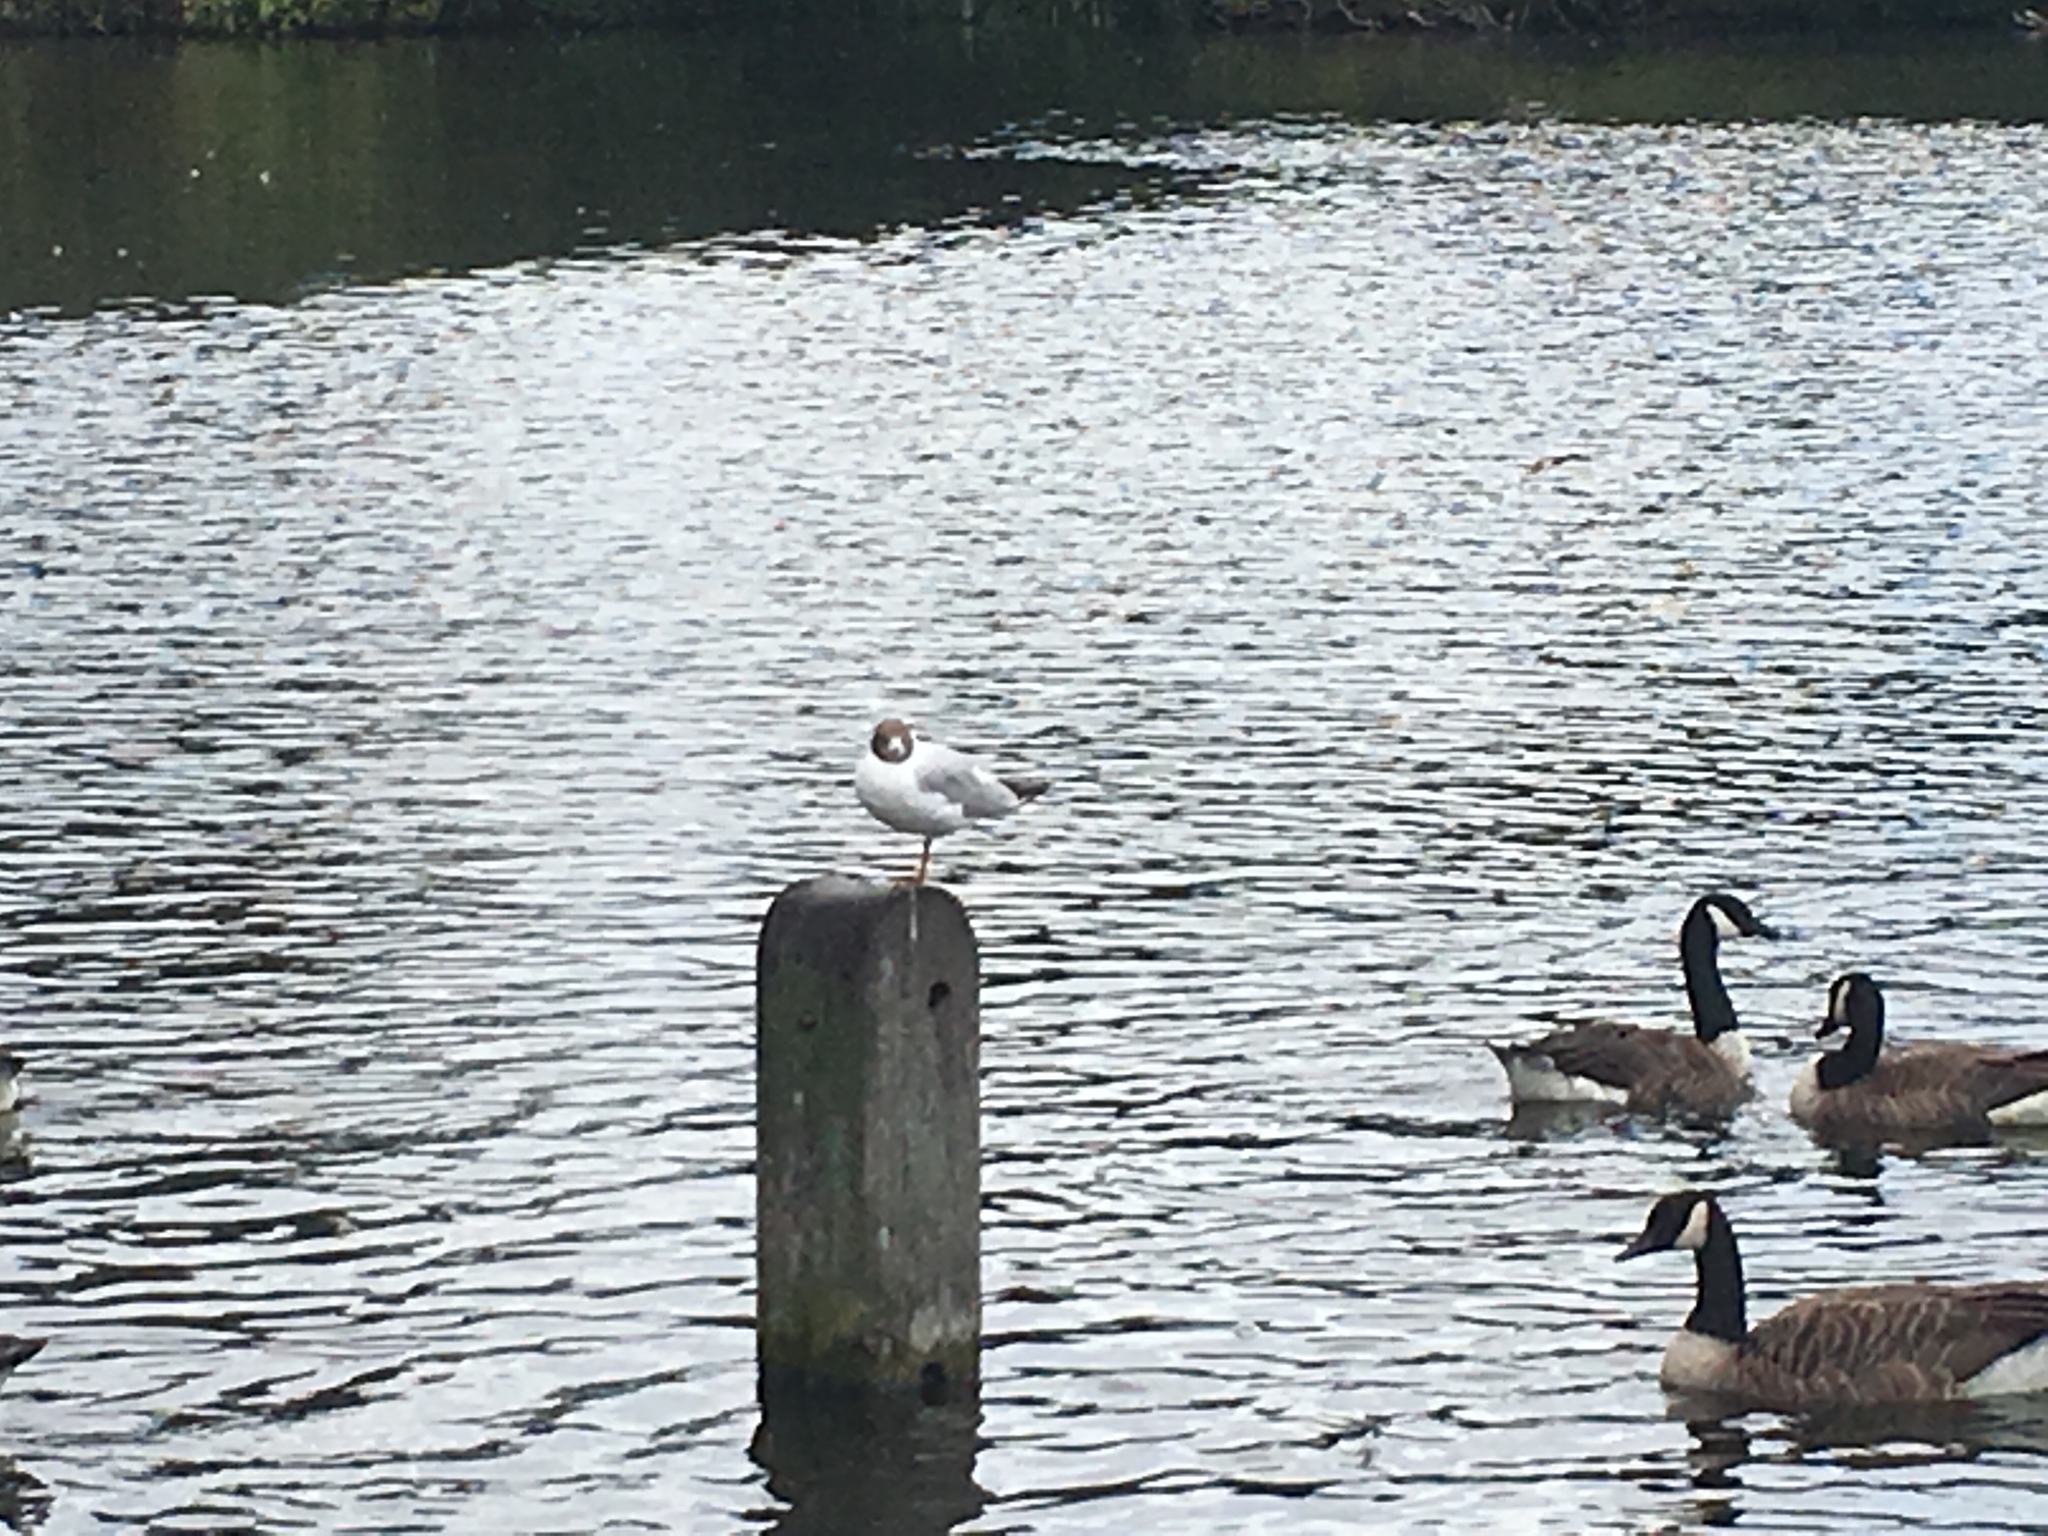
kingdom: Animalia
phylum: Chordata
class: Aves
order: Charadriiformes
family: Laridae
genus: Chroicocephalus
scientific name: Chroicocephalus ridibundus
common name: Black-headed gull
